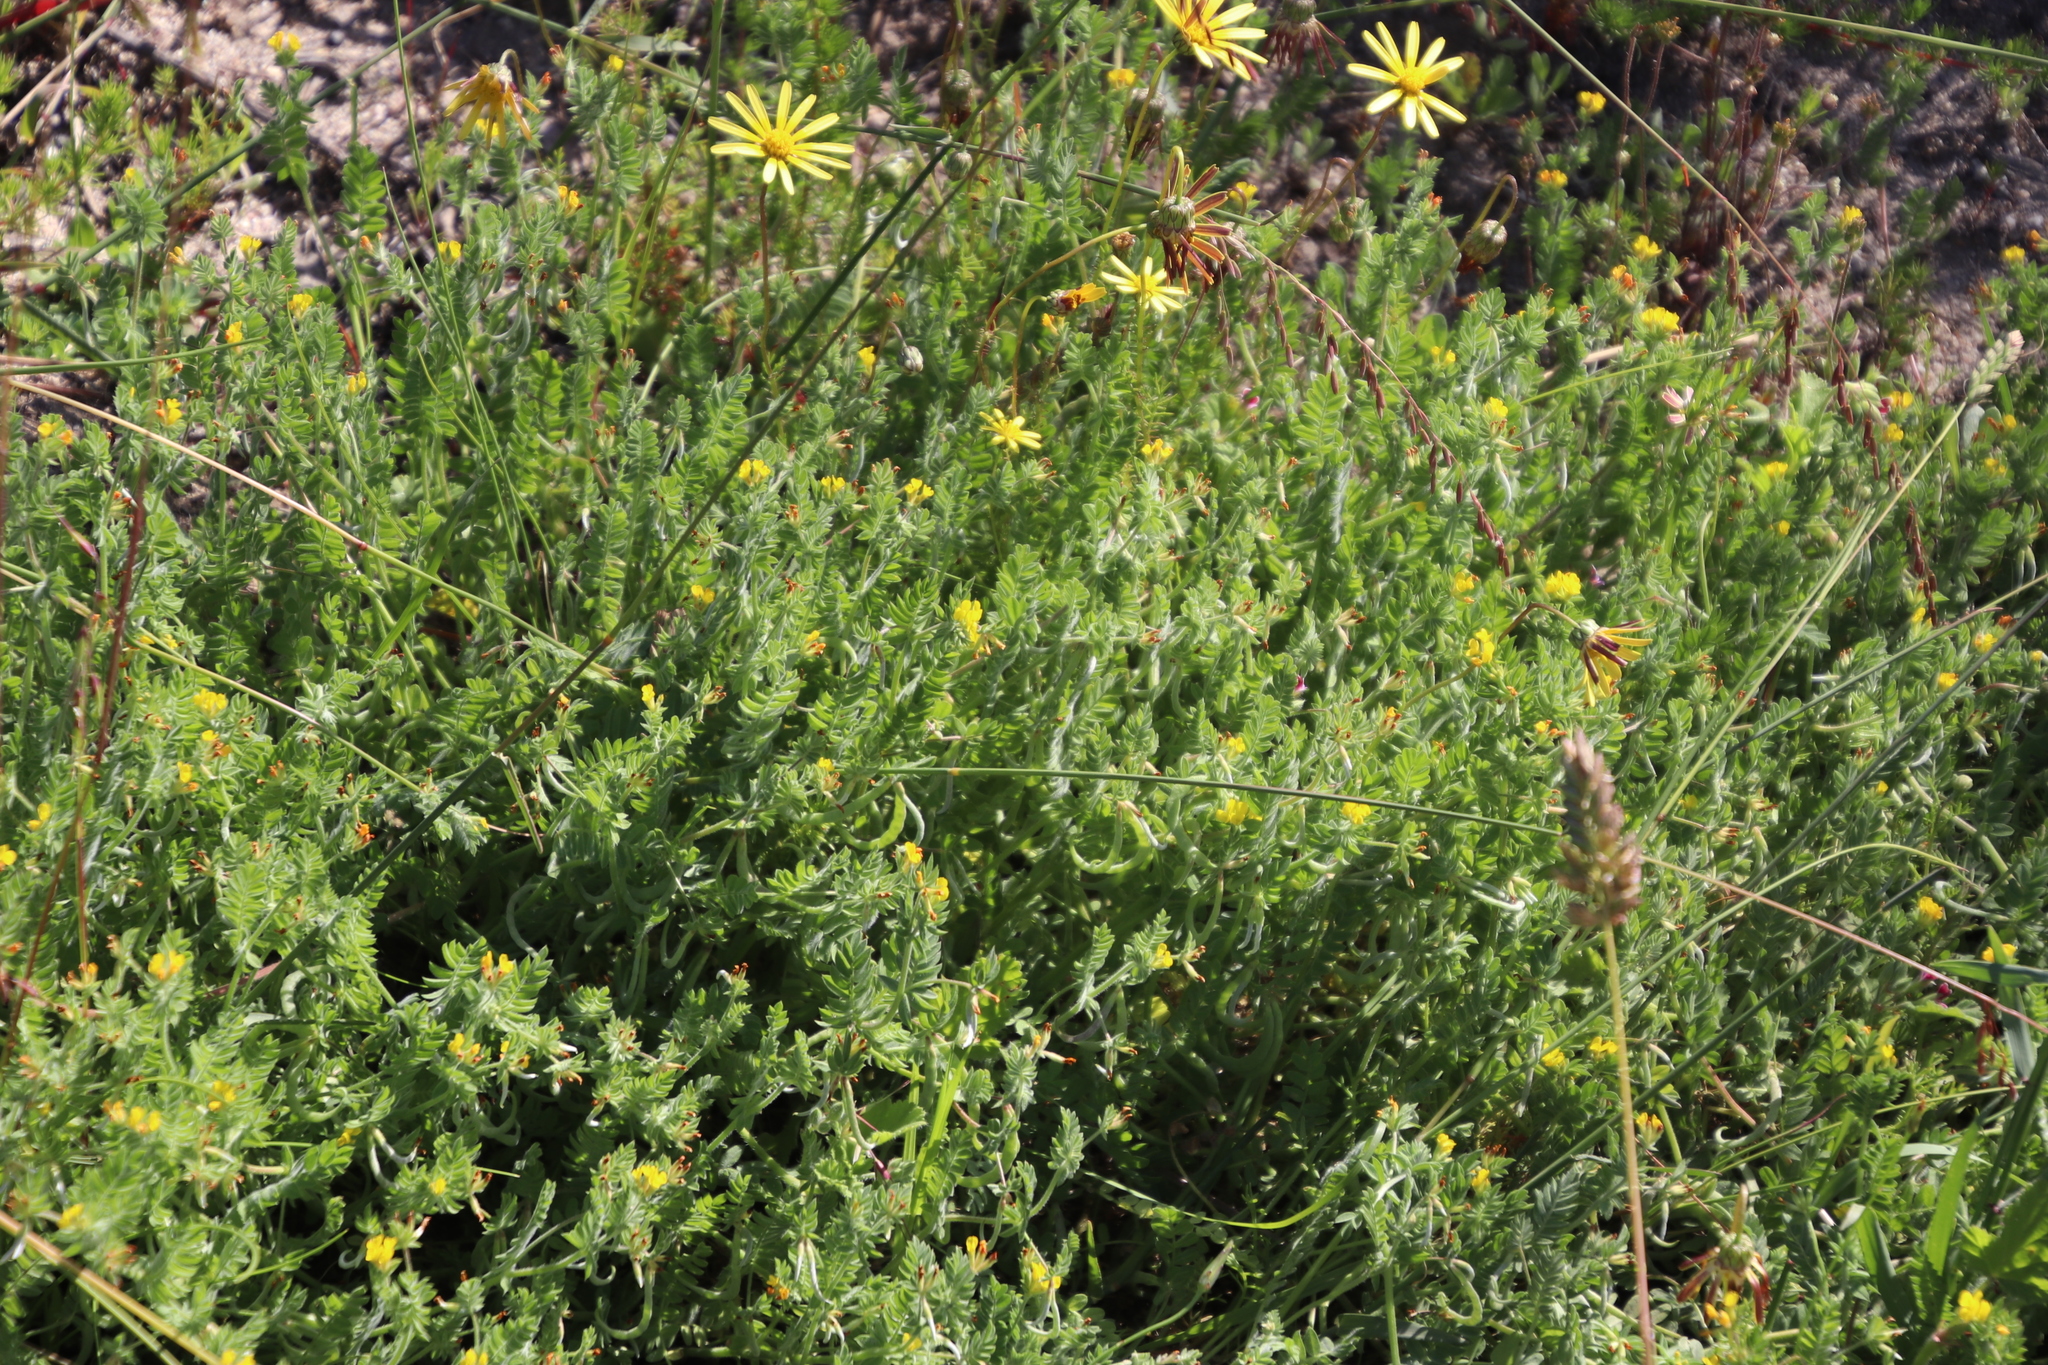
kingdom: Plantae
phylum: Tracheophyta
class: Magnoliopsida
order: Fabales
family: Fabaceae
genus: Ornithopus
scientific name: Ornithopus compressus
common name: Yellow serradella
